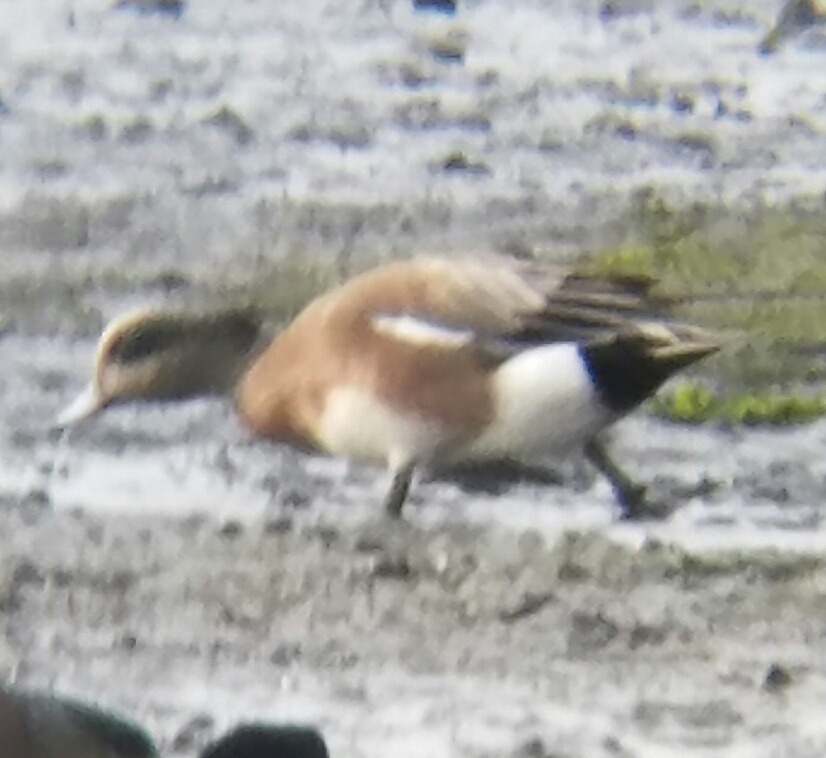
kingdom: Animalia
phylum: Chordata
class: Aves
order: Anseriformes
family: Anatidae
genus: Mareca
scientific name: Mareca americana
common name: American wigeon
